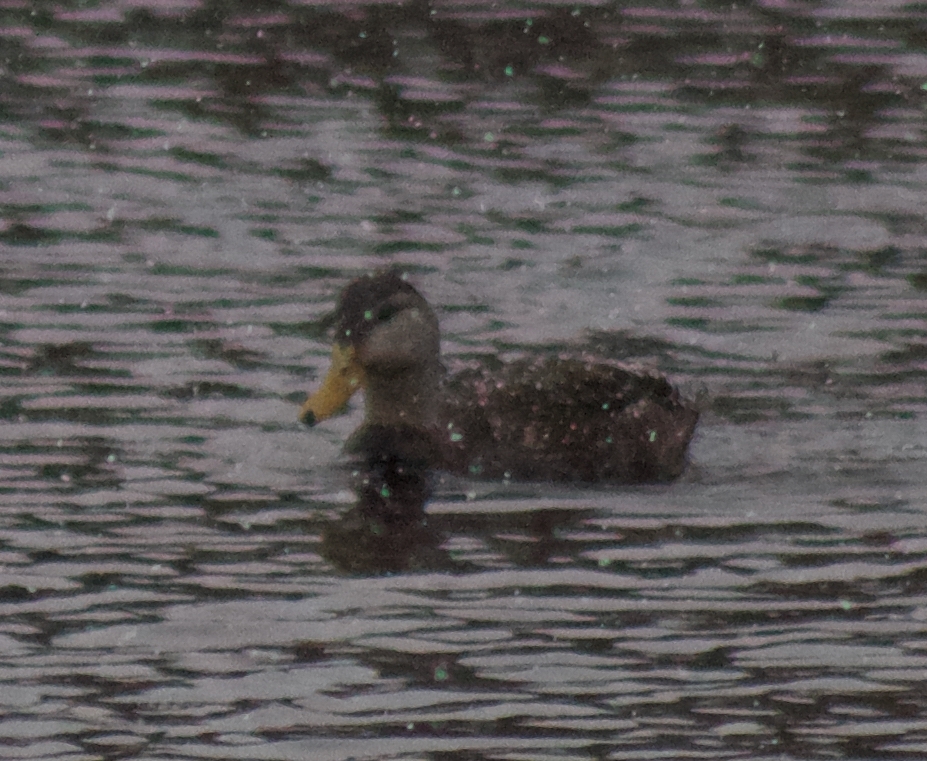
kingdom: Animalia
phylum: Chordata
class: Aves
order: Anseriformes
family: Anatidae
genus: Anas
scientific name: Anas rubripes
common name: American black duck
